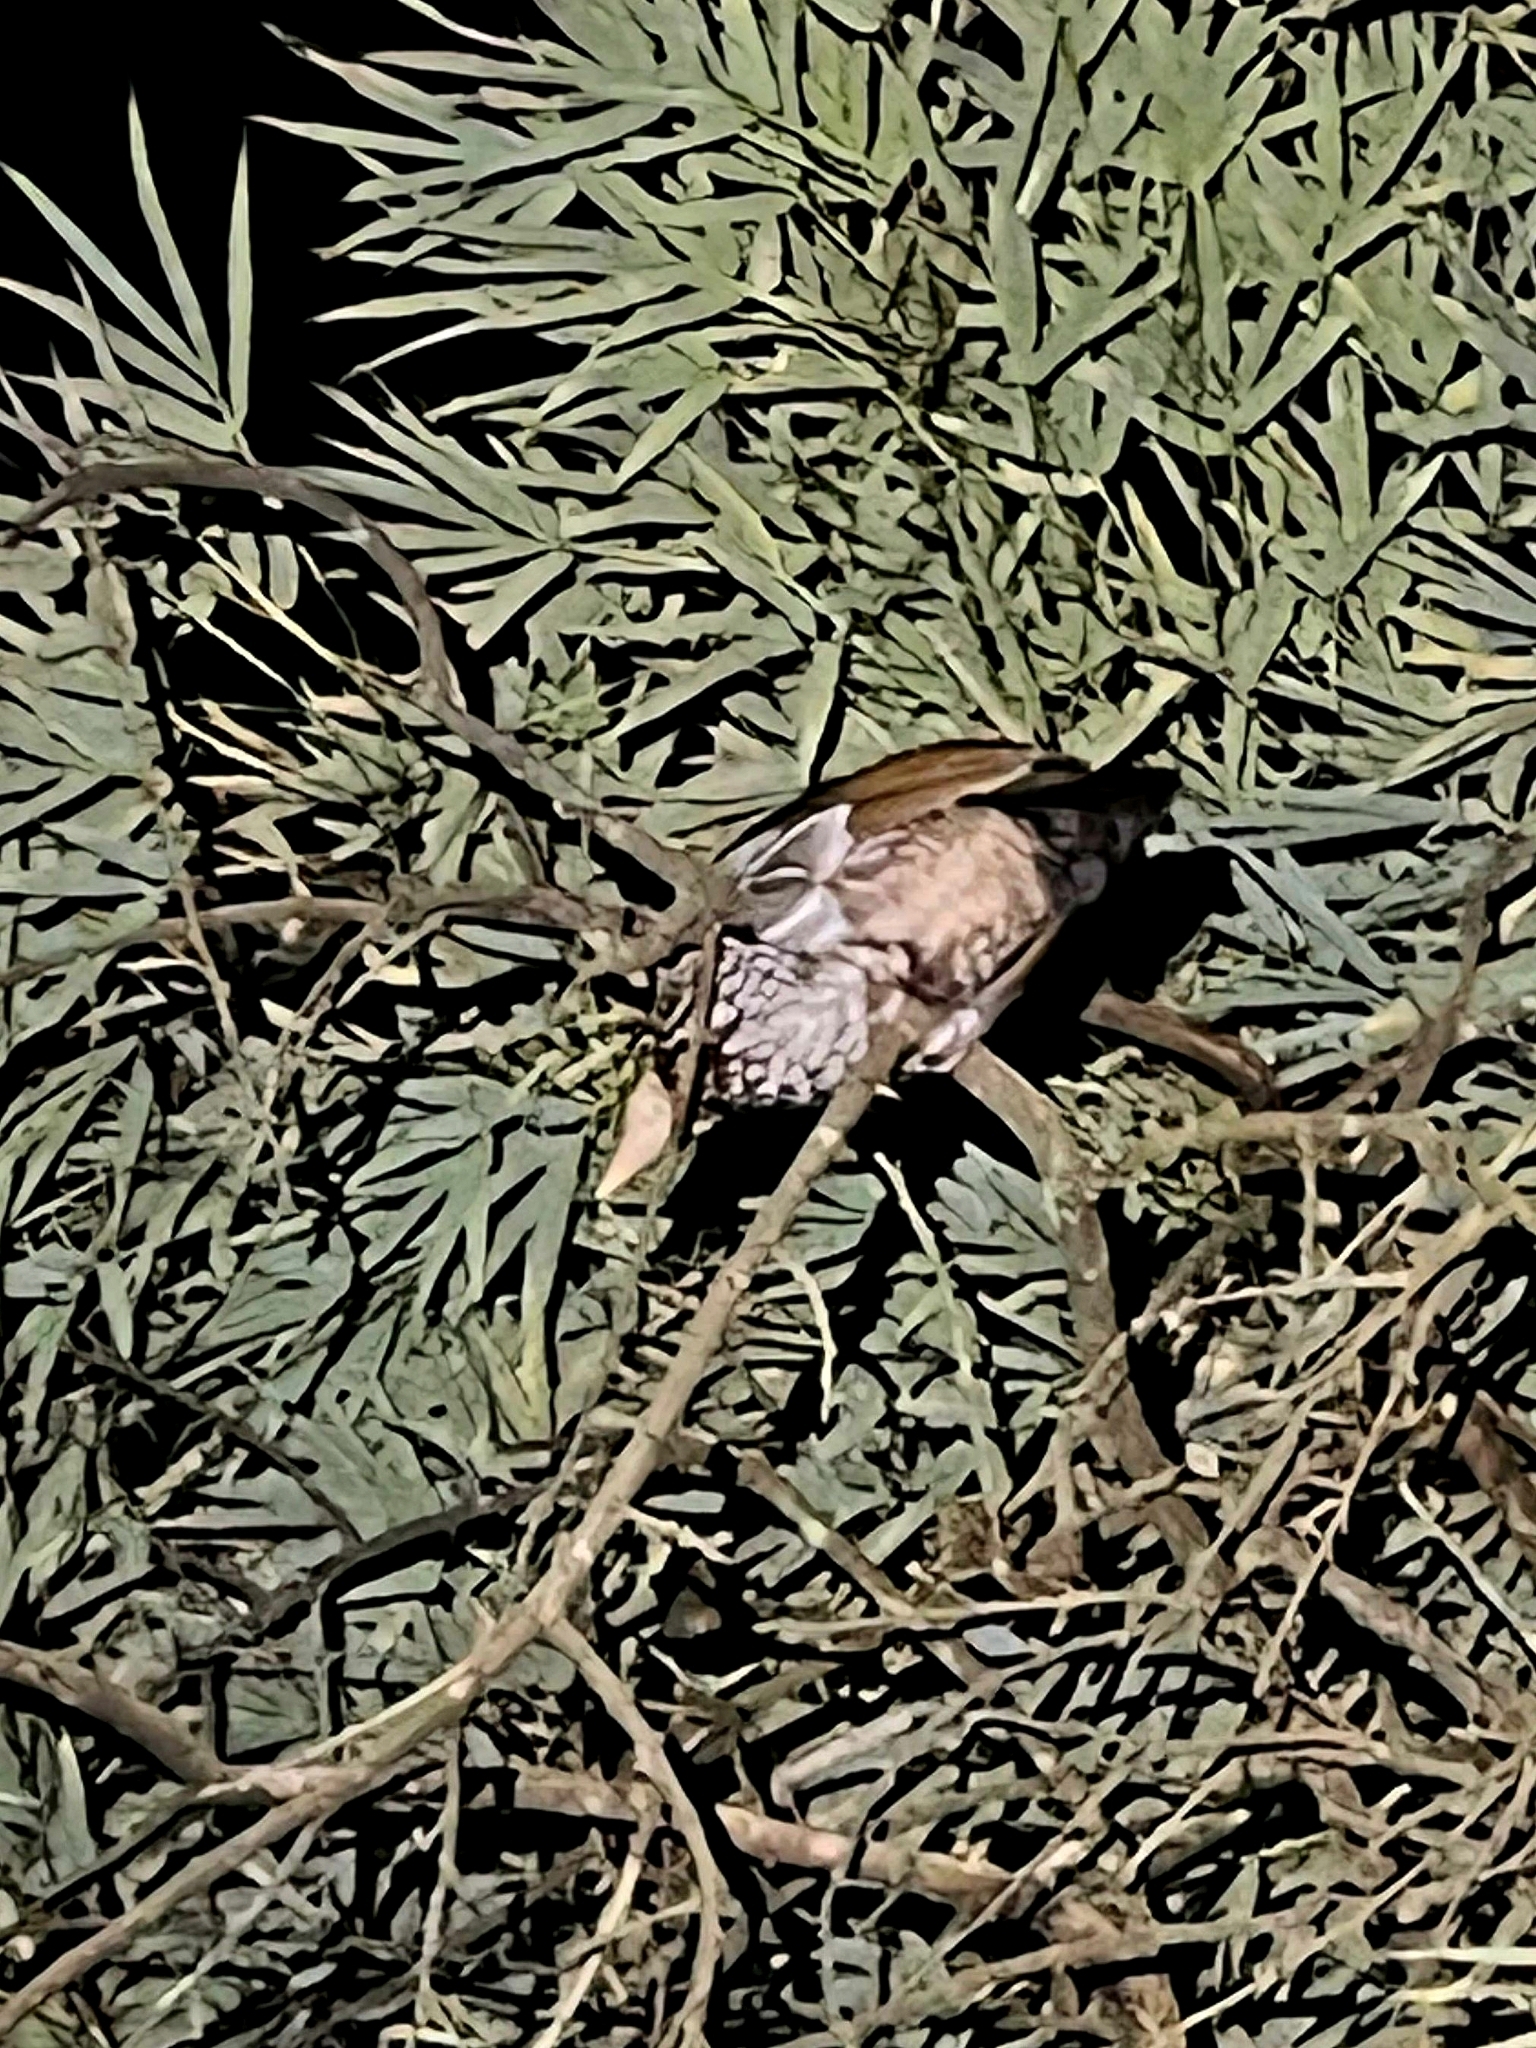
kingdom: Animalia
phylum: Chordata
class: Aves
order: Galliformes
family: Phasianidae
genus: Gallus
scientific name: Gallus sonneratii
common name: Grey junglefowl
